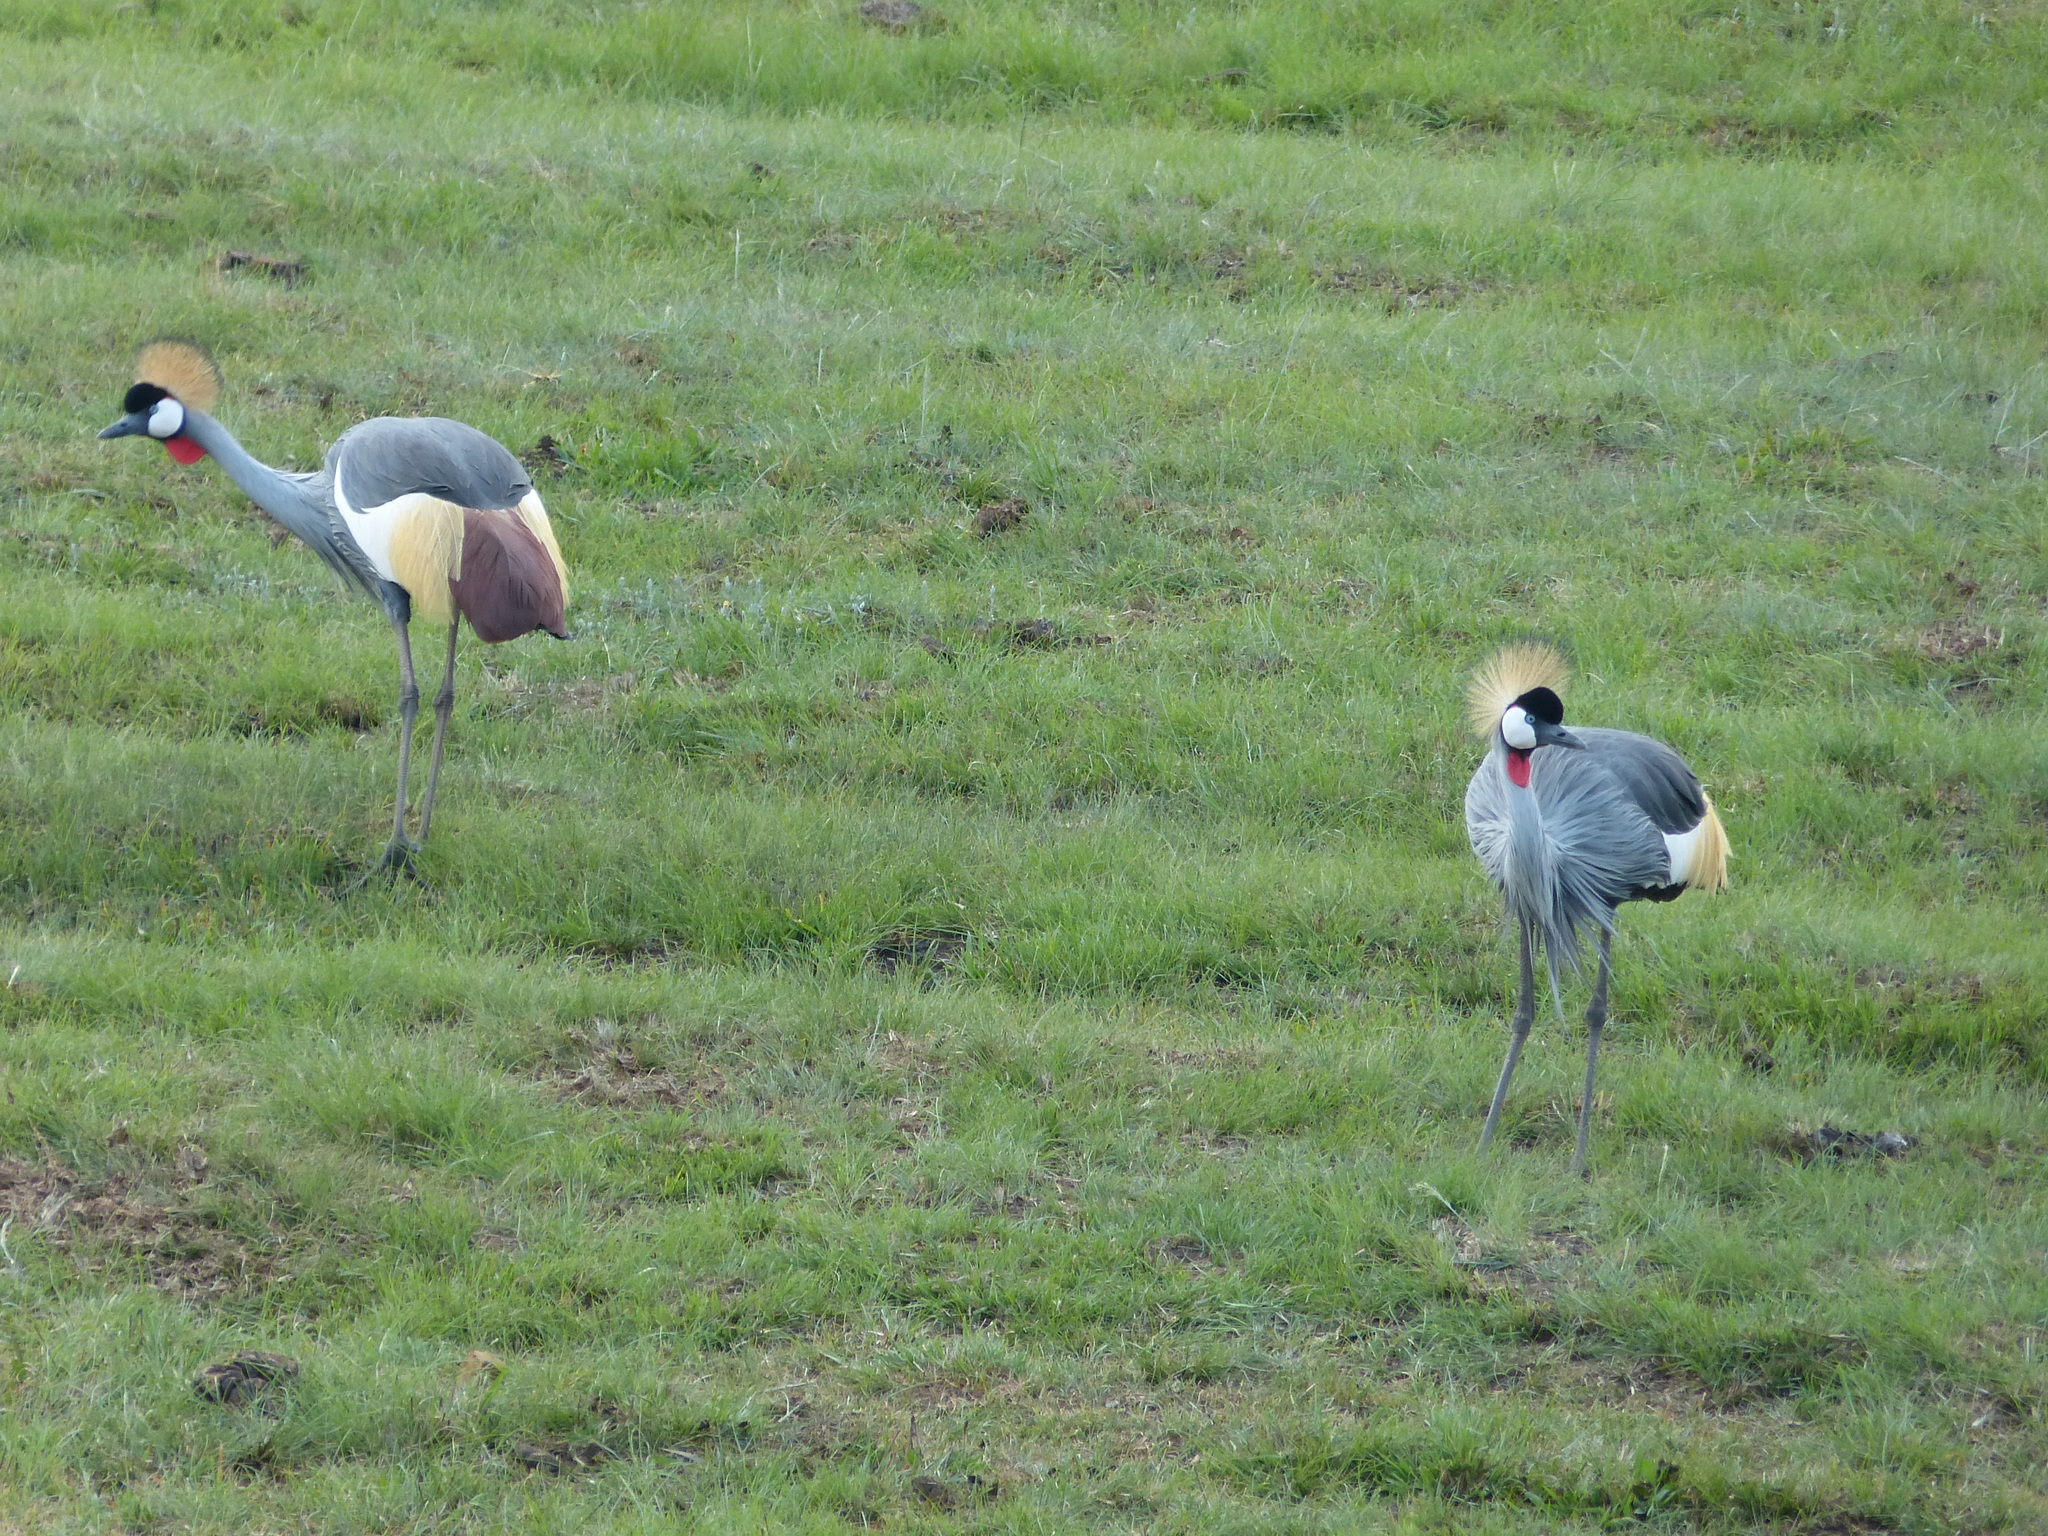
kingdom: Animalia
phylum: Chordata
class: Aves
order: Gruiformes
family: Gruidae
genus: Balearica
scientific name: Balearica regulorum
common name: Grey crowned crane
